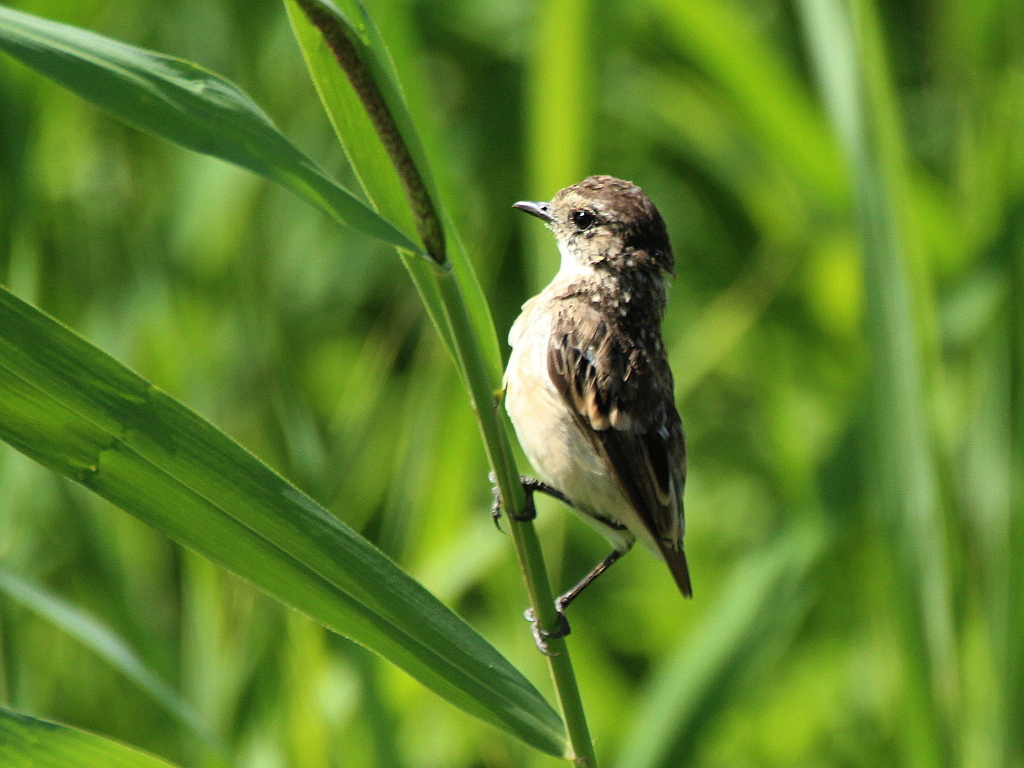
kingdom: Animalia
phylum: Chordata
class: Aves
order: Passeriformes
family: Muscicapidae
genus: Saxicola
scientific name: Saxicola maurus
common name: Siberian stonechat
